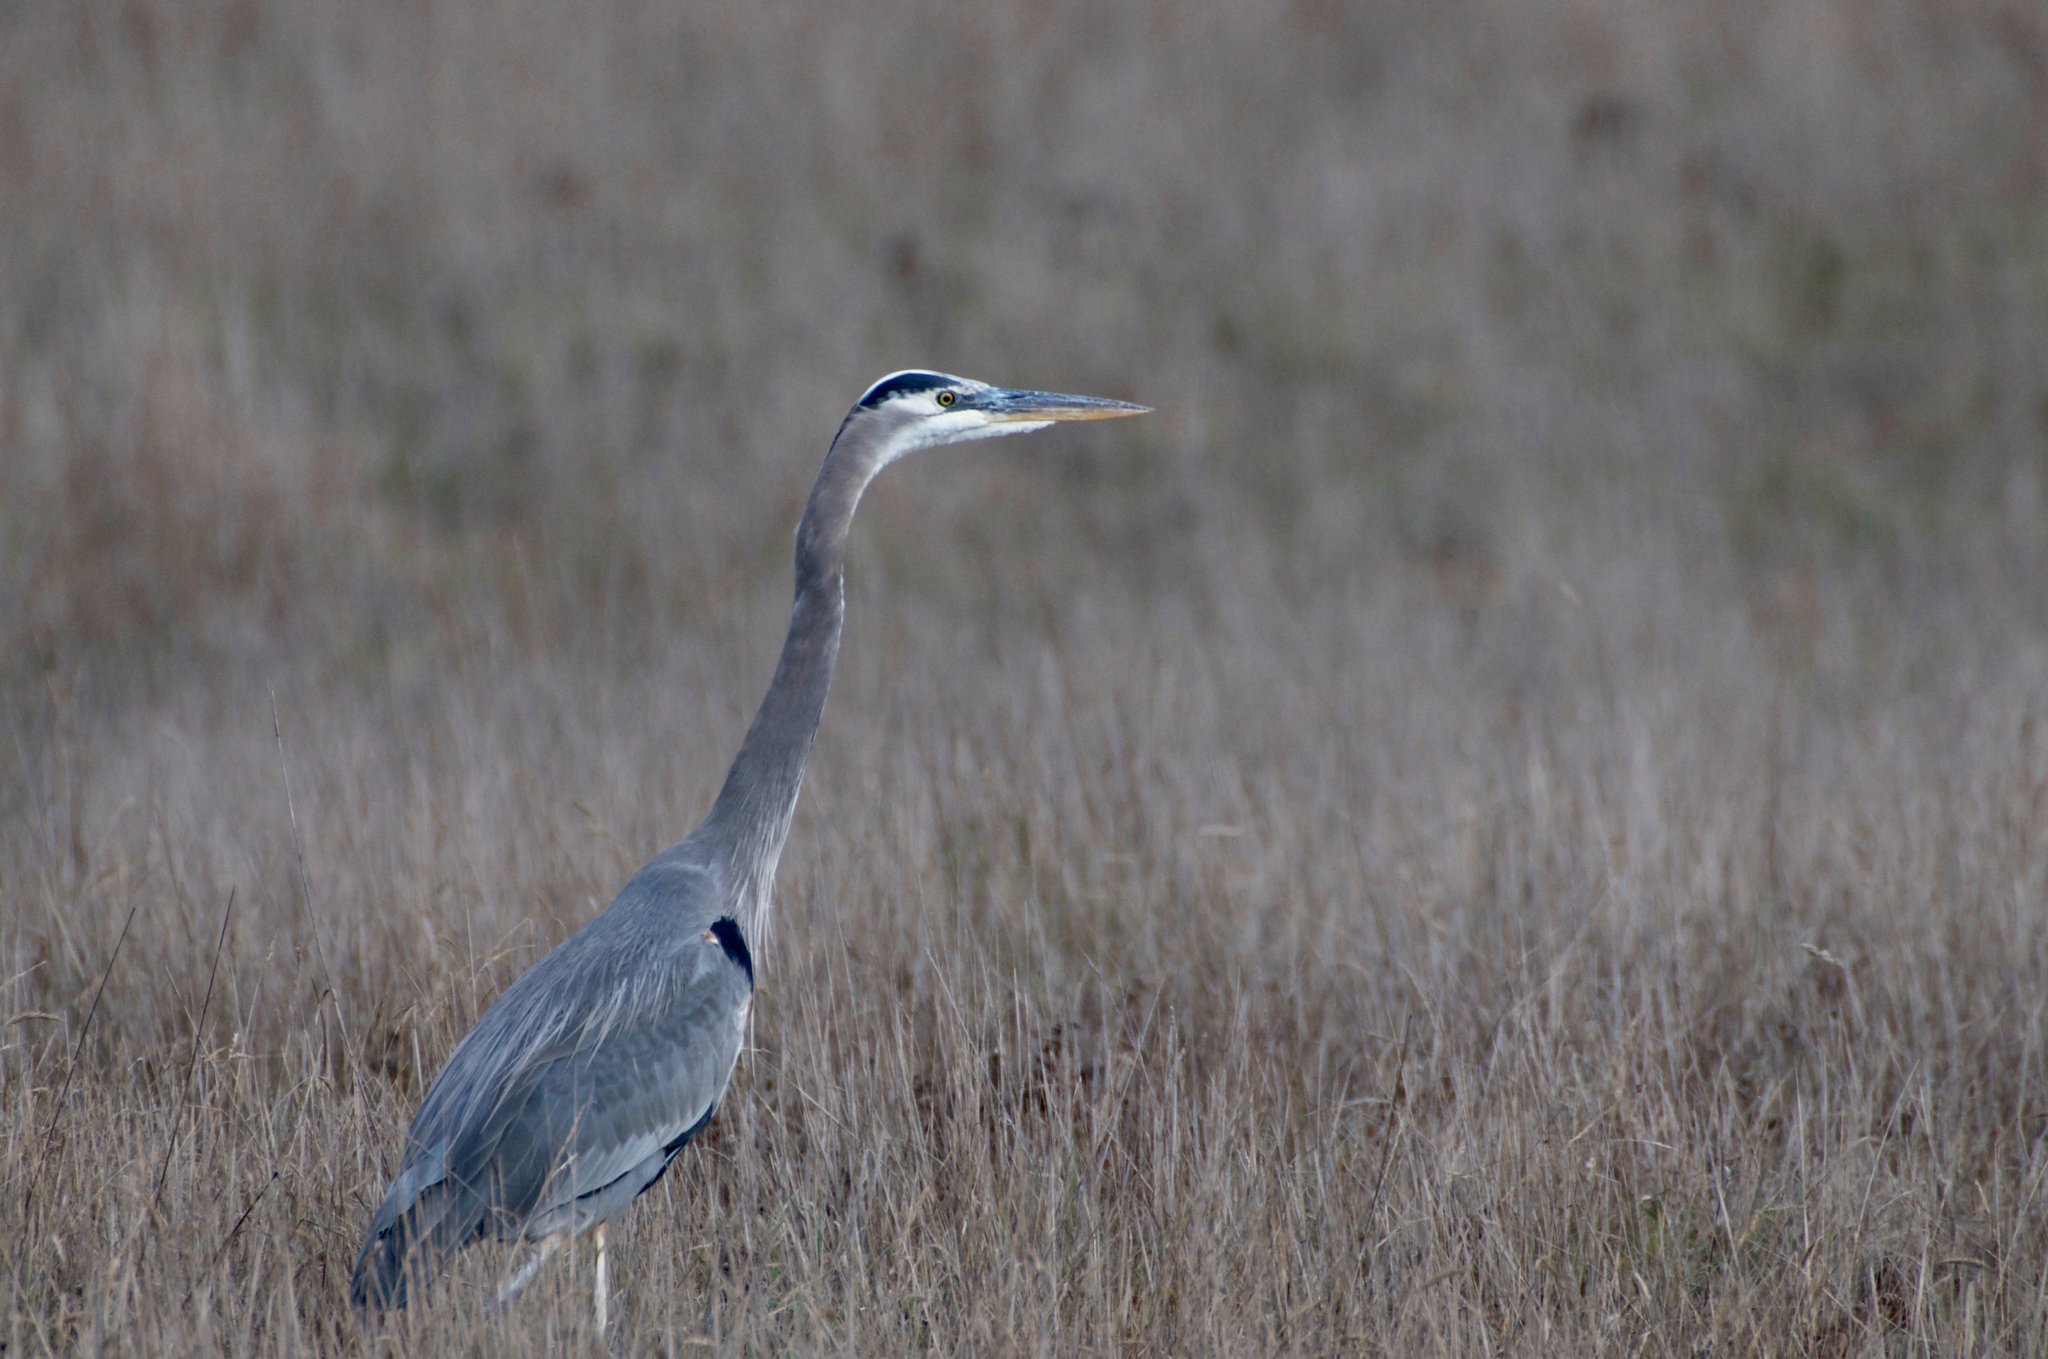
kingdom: Animalia
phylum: Chordata
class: Aves
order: Pelecaniformes
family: Ardeidae
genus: Ardea
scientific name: Ardea herodias
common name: Great blue heron
